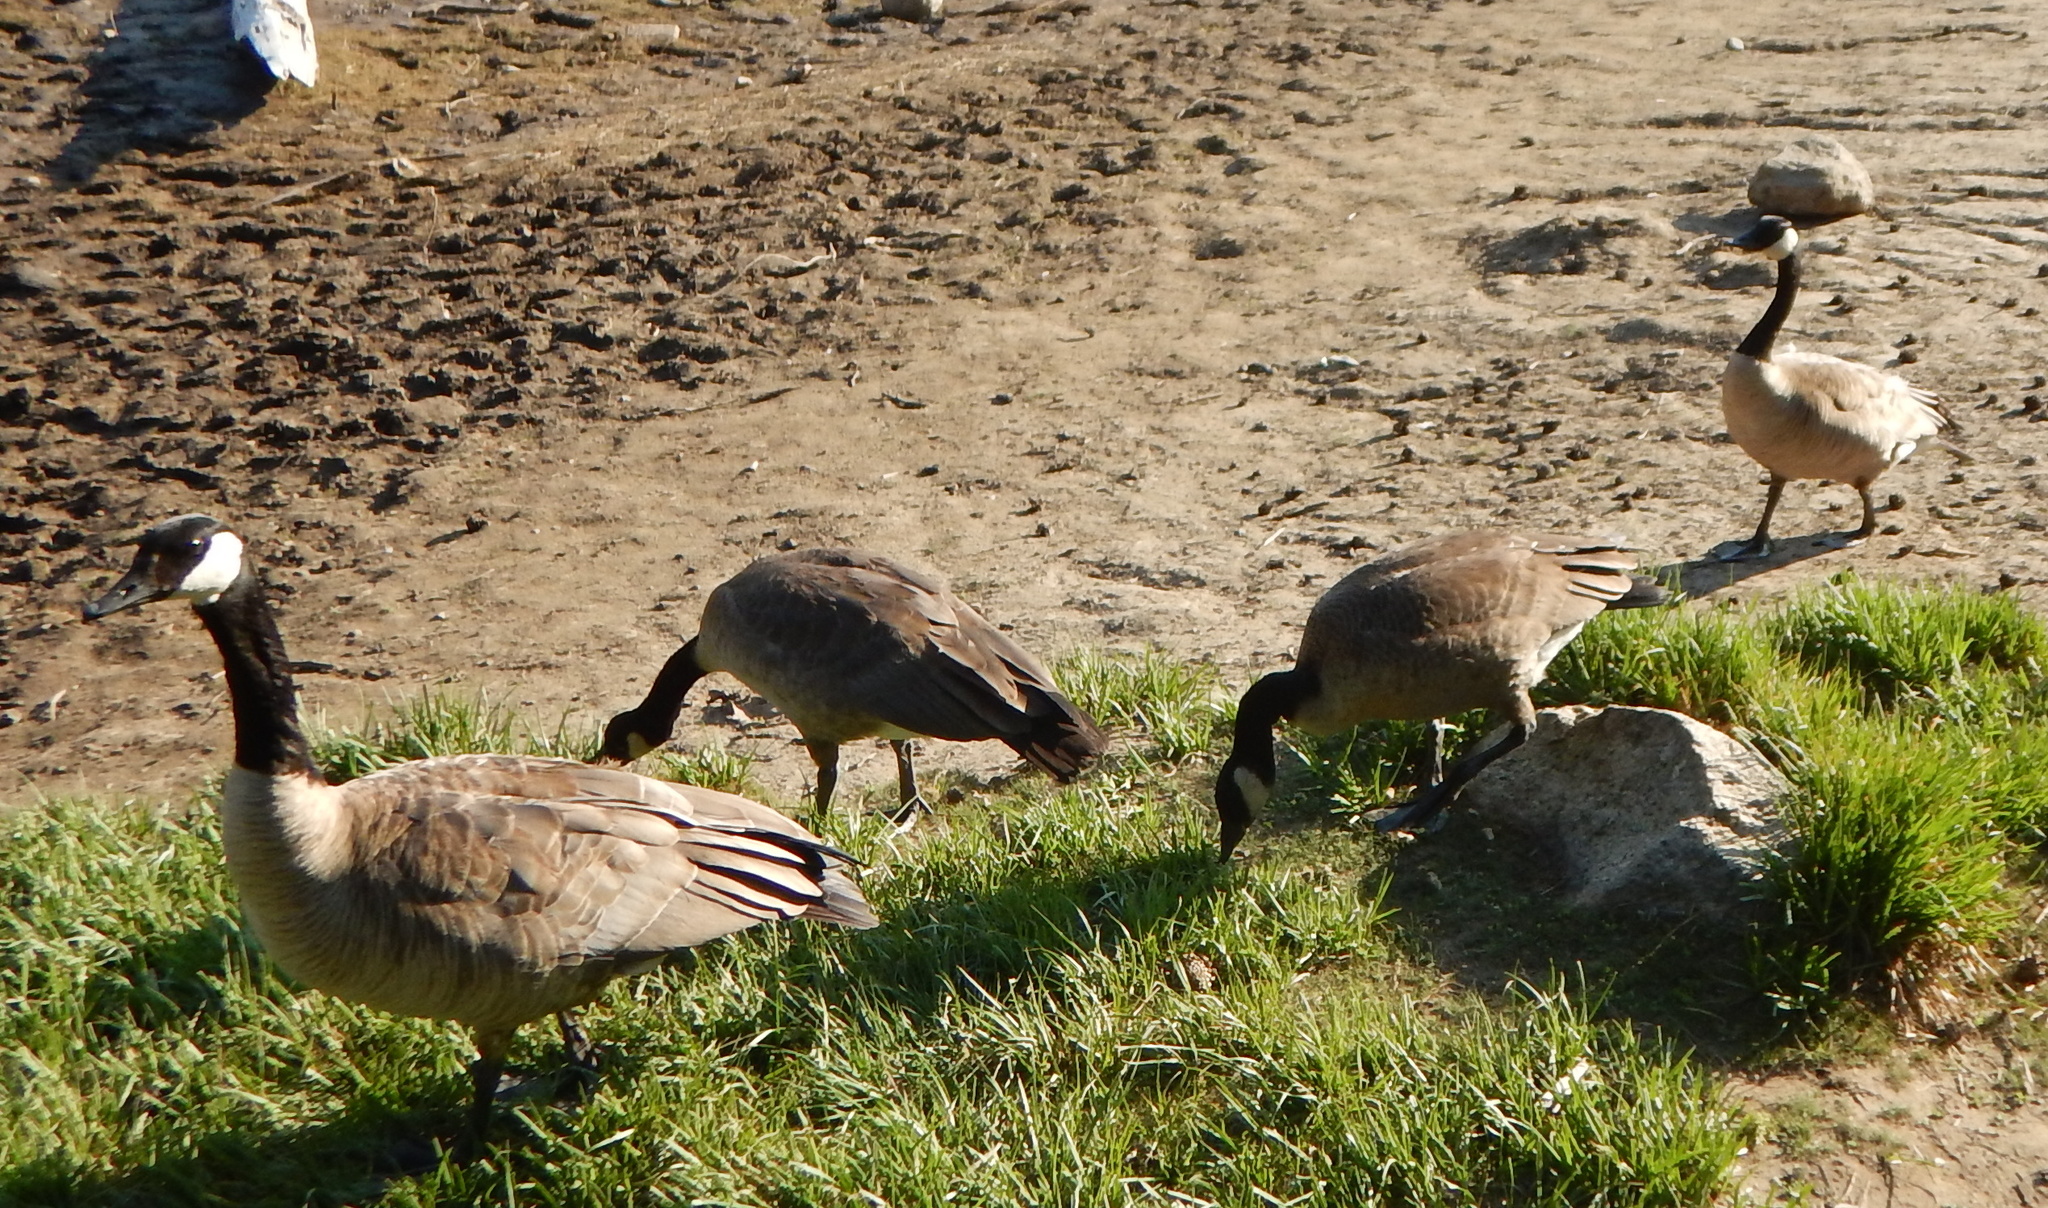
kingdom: Animalia
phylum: Chordata
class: Aves
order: Anseriformes
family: Anatidae
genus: Branta
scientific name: Branta canadensis
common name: Canada goose
